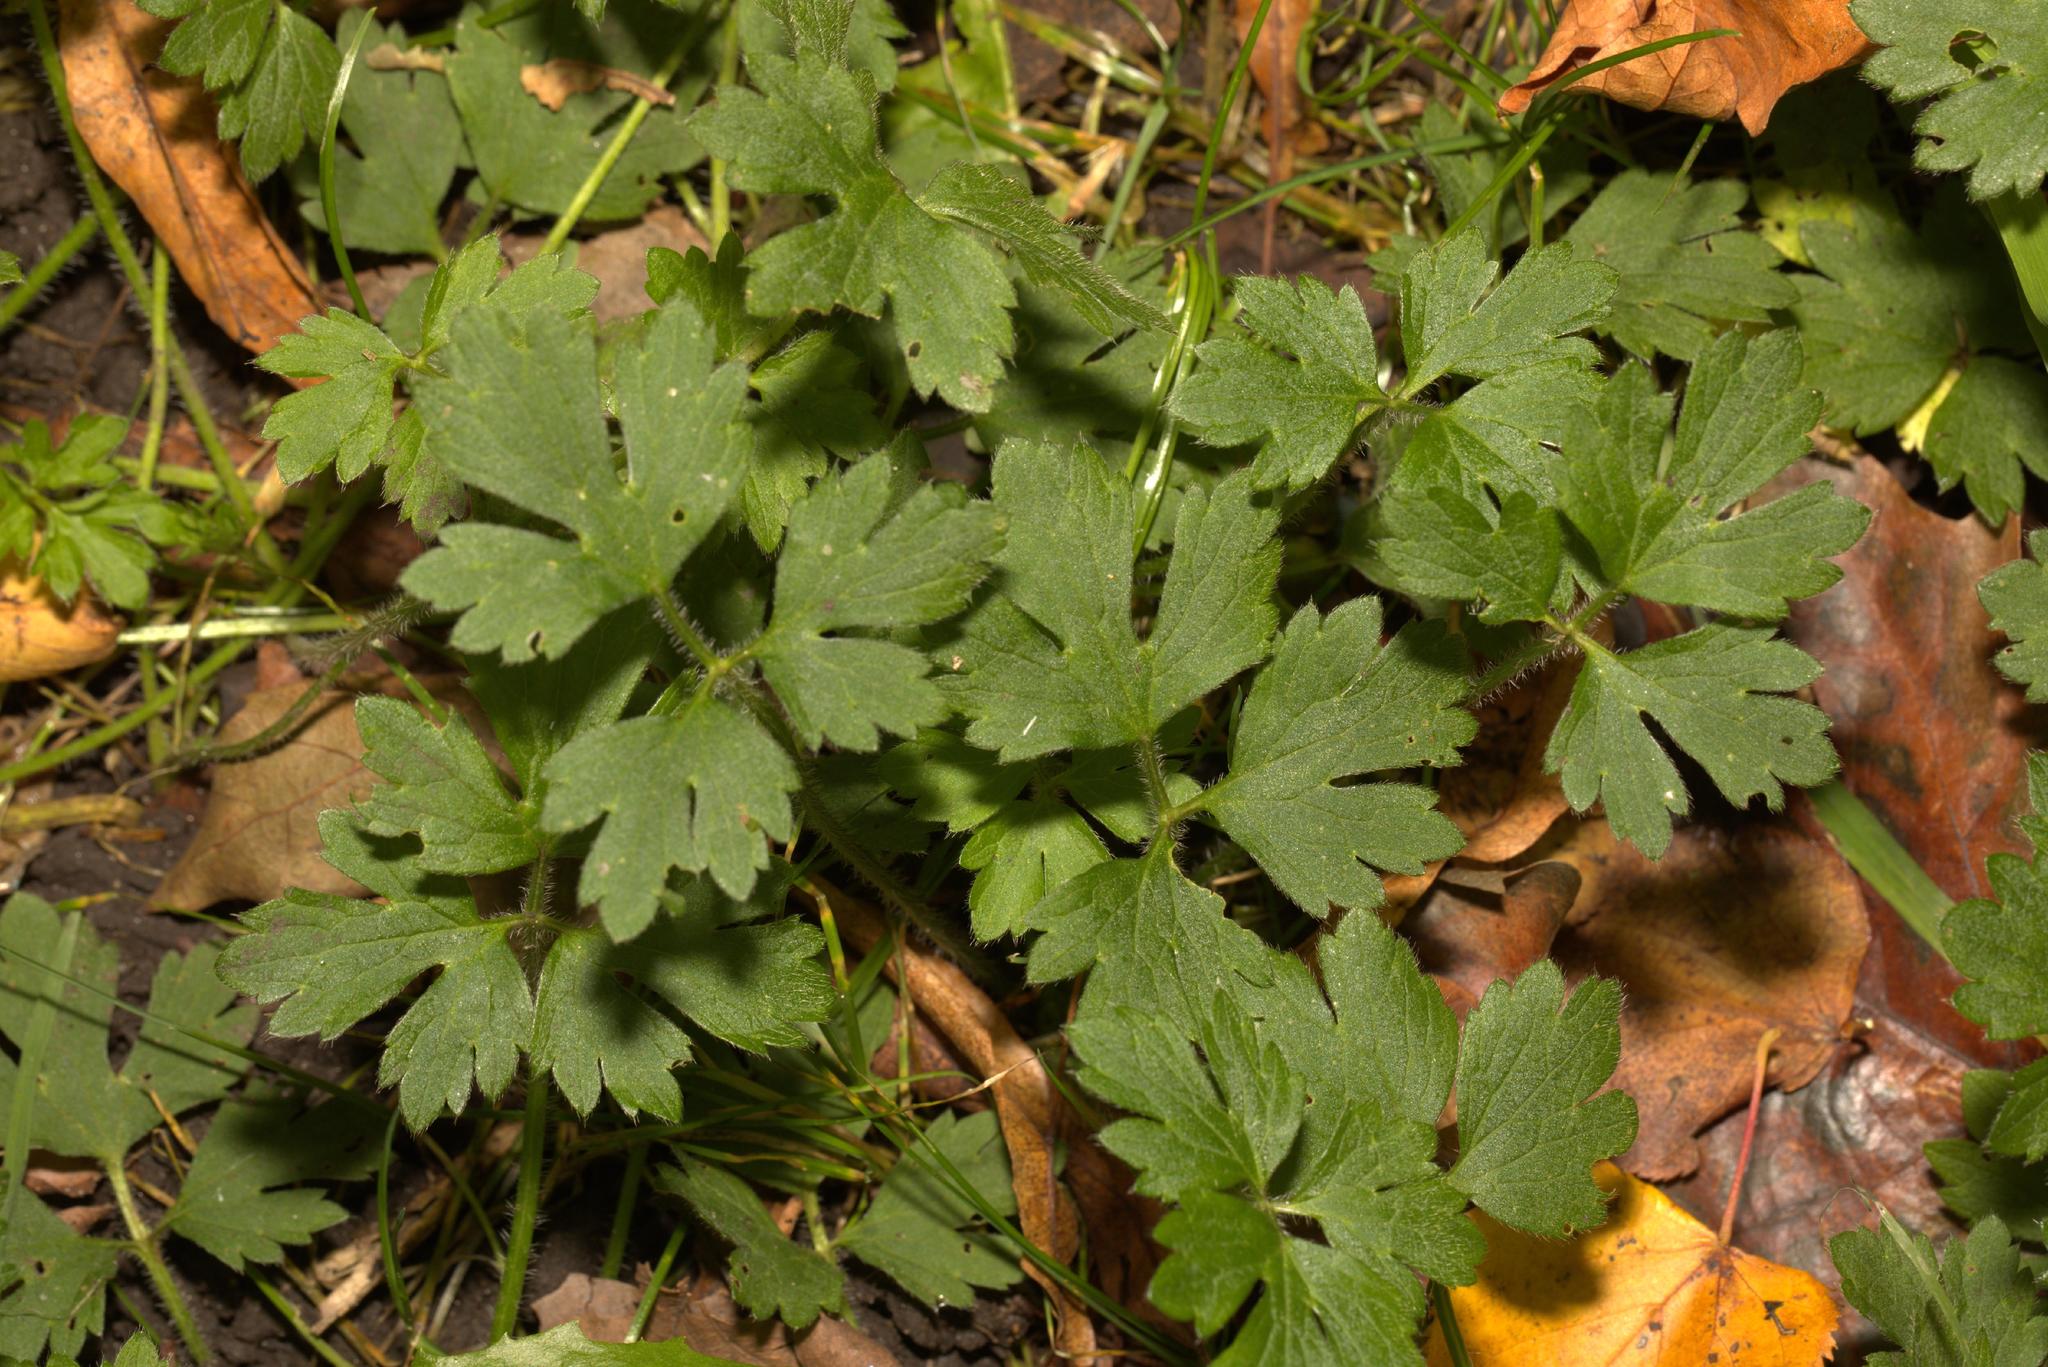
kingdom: Plantae
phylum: Tracheophyta
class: Magnoliopsida
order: Ranunculales
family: Ranunculaceae
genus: Ranunculus
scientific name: Ranunculus repens
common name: Creeping buttercup
